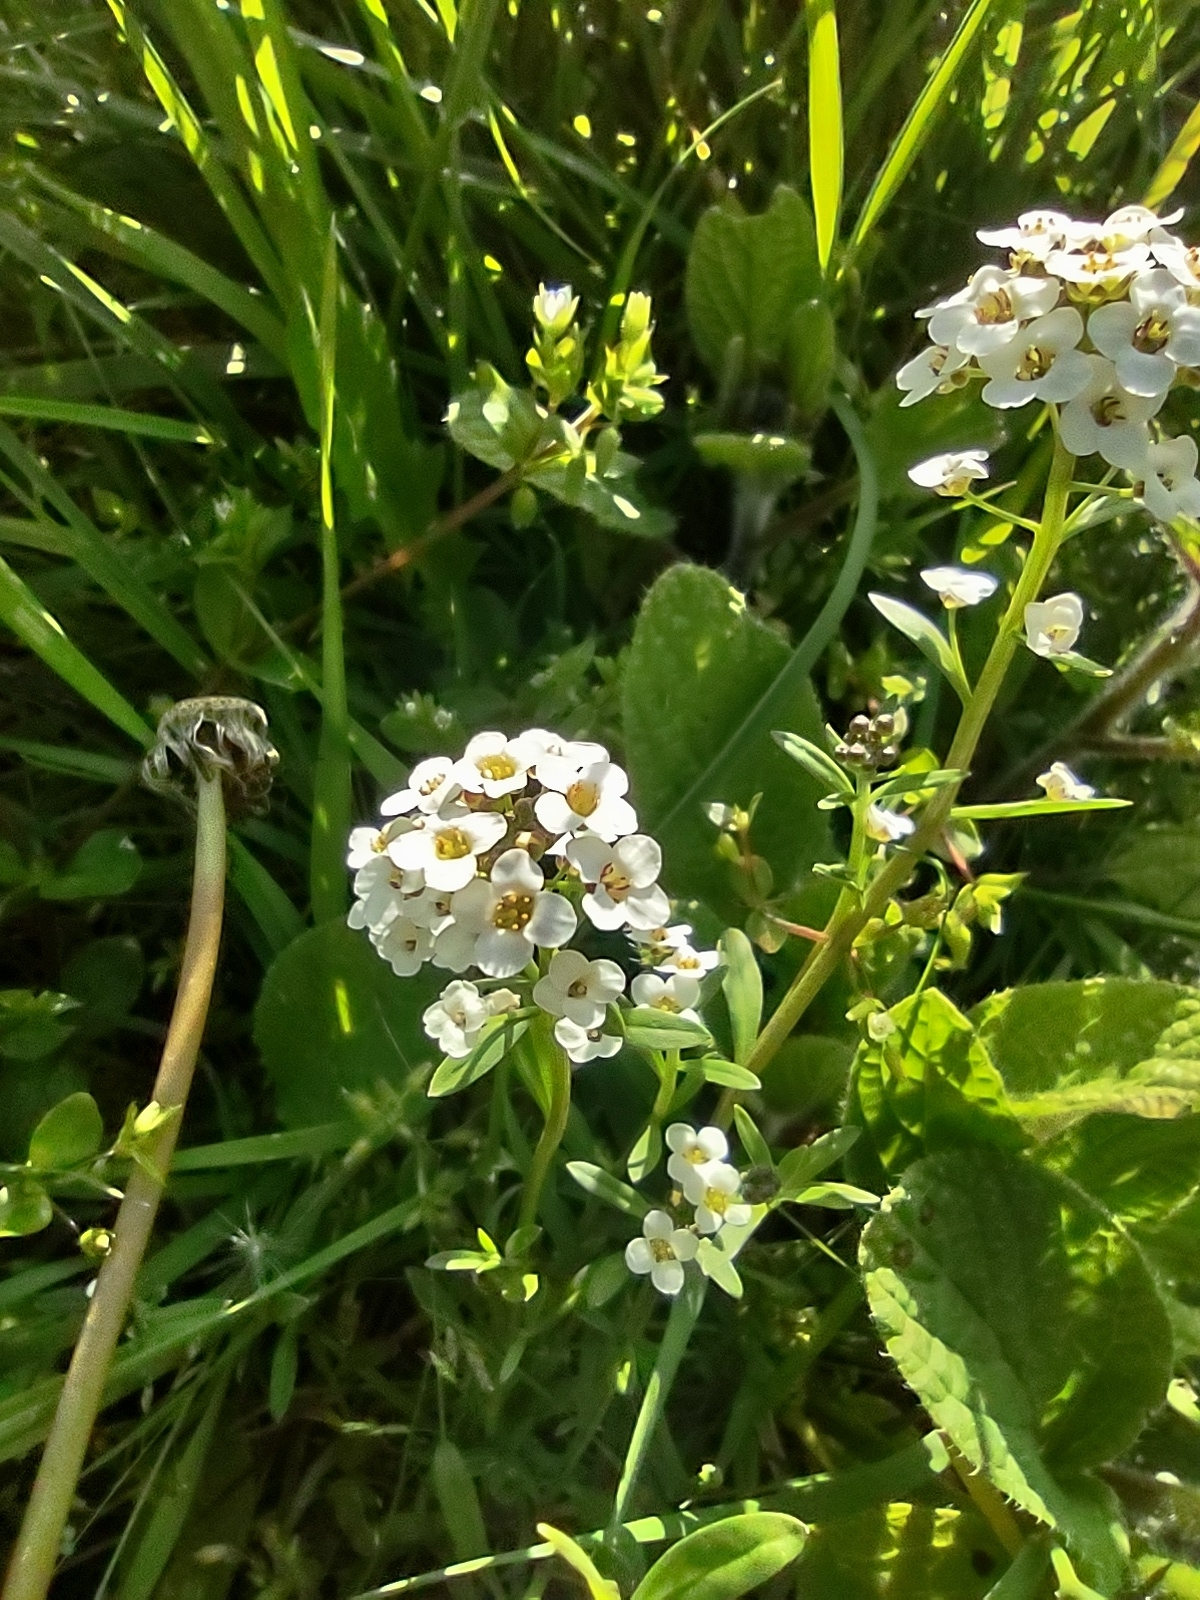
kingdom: Plantae
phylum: Tracheophyta
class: Magnoliopsida
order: Brassicales
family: Brassicaceae
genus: Lobularia
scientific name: Lobularia maritima
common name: Sweet alison
